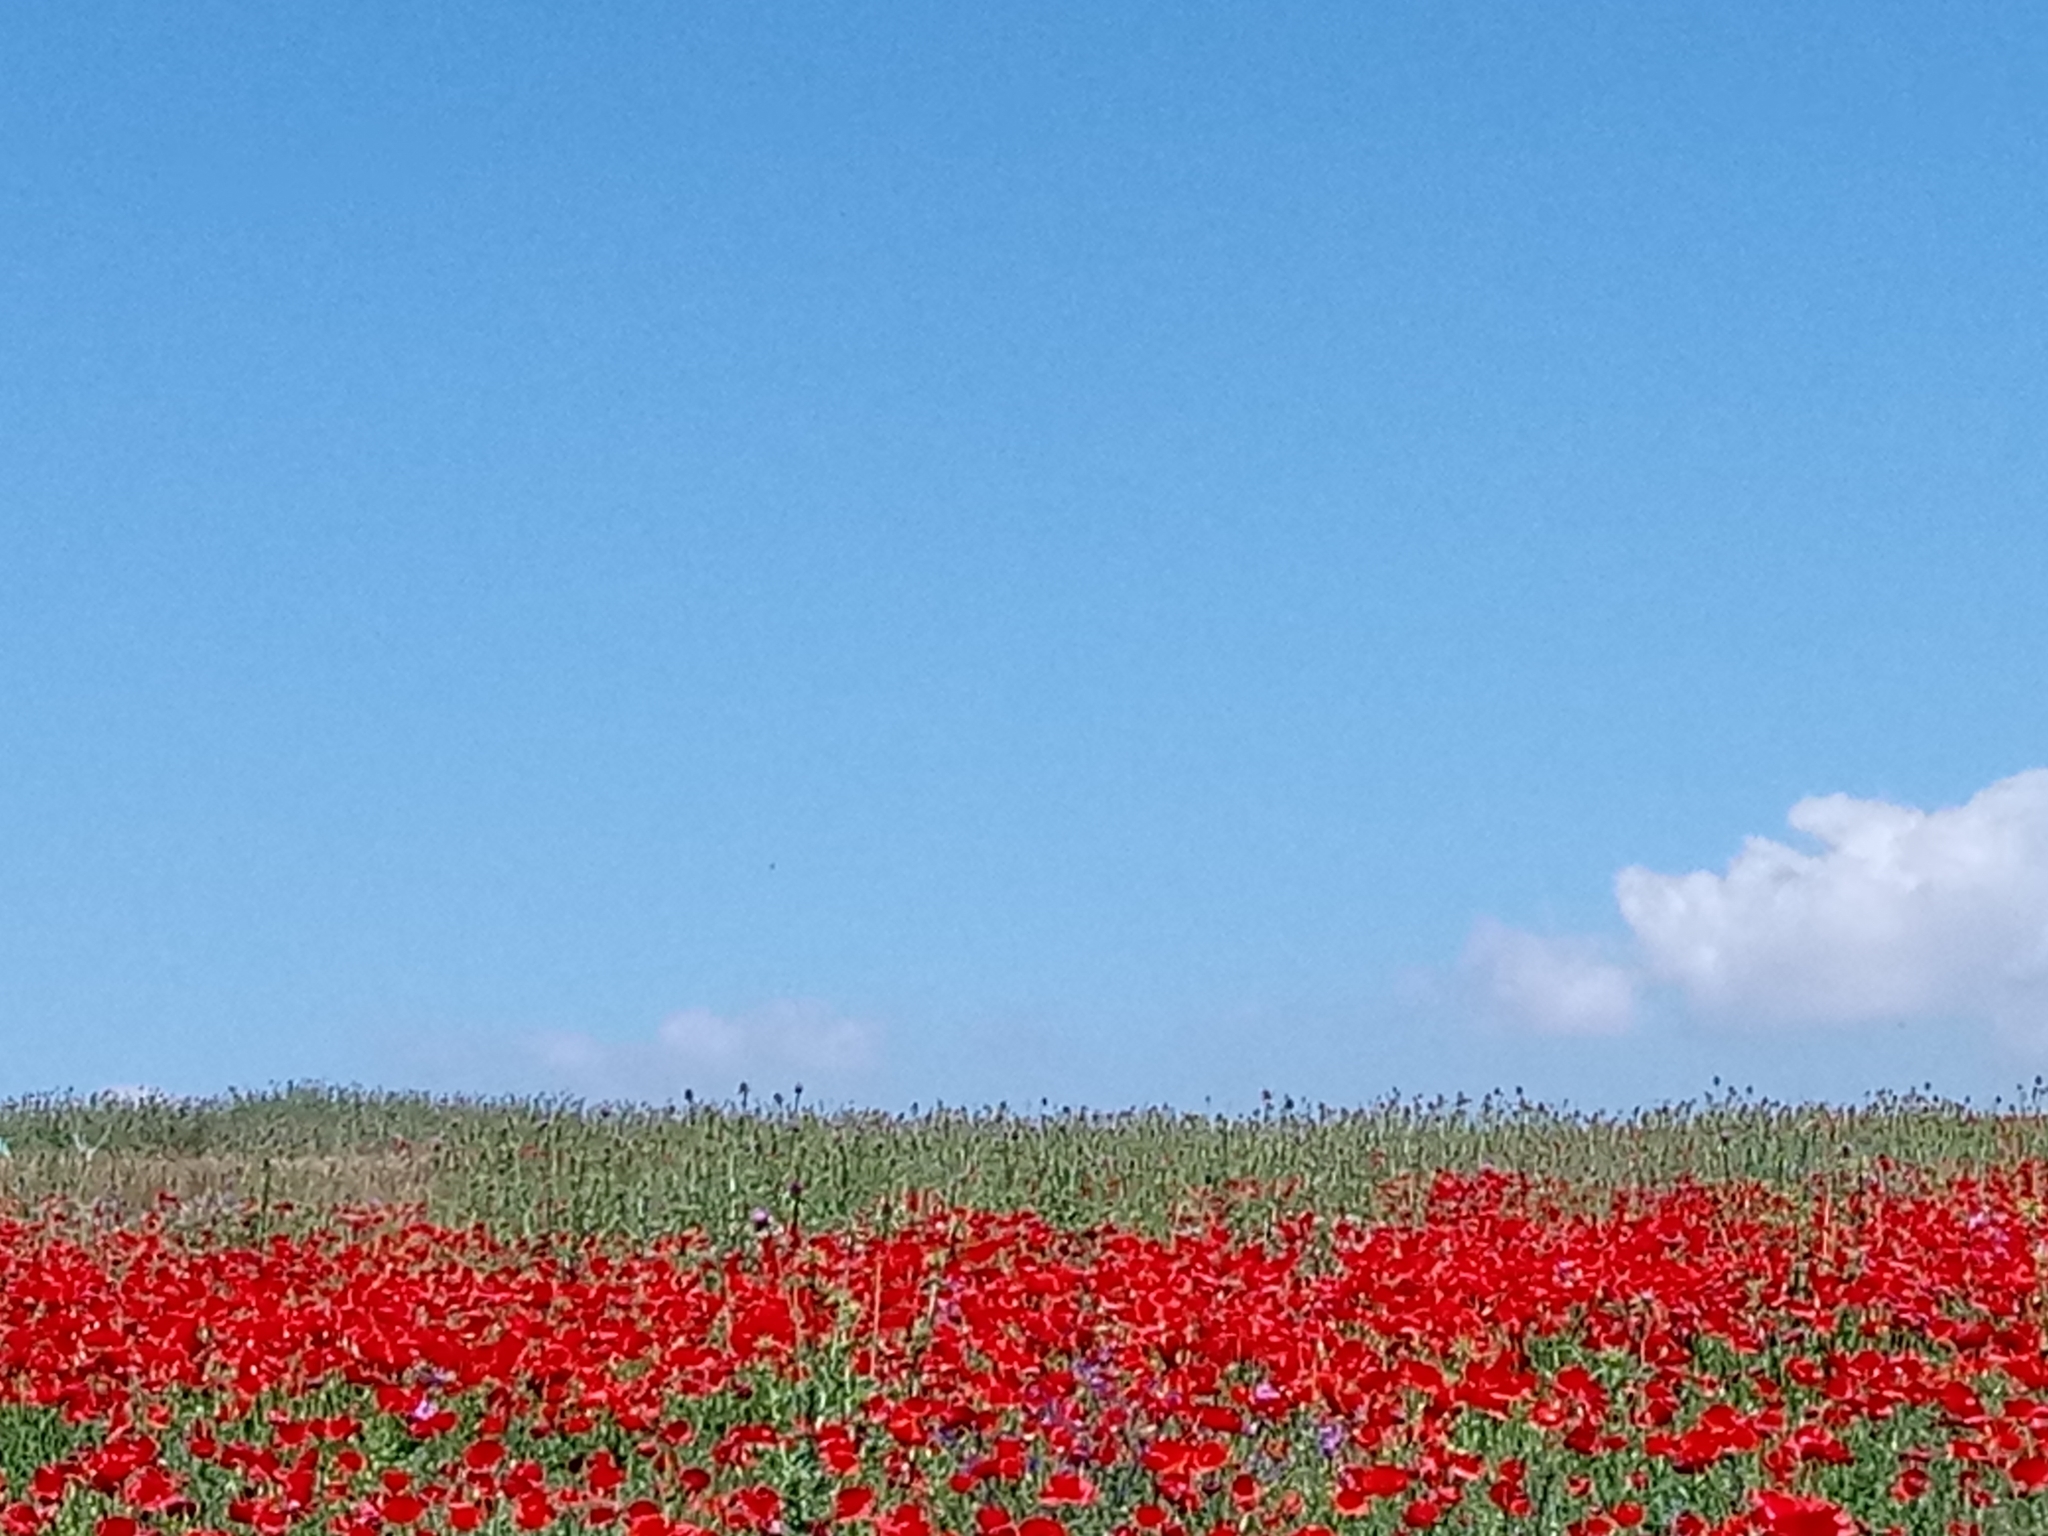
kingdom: Plantae
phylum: Tracheophyta
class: Magnoliopsida
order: Ranunculales
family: Papaveraceae
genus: Papaver
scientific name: Papaver rhoeas
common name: Corn poppy
